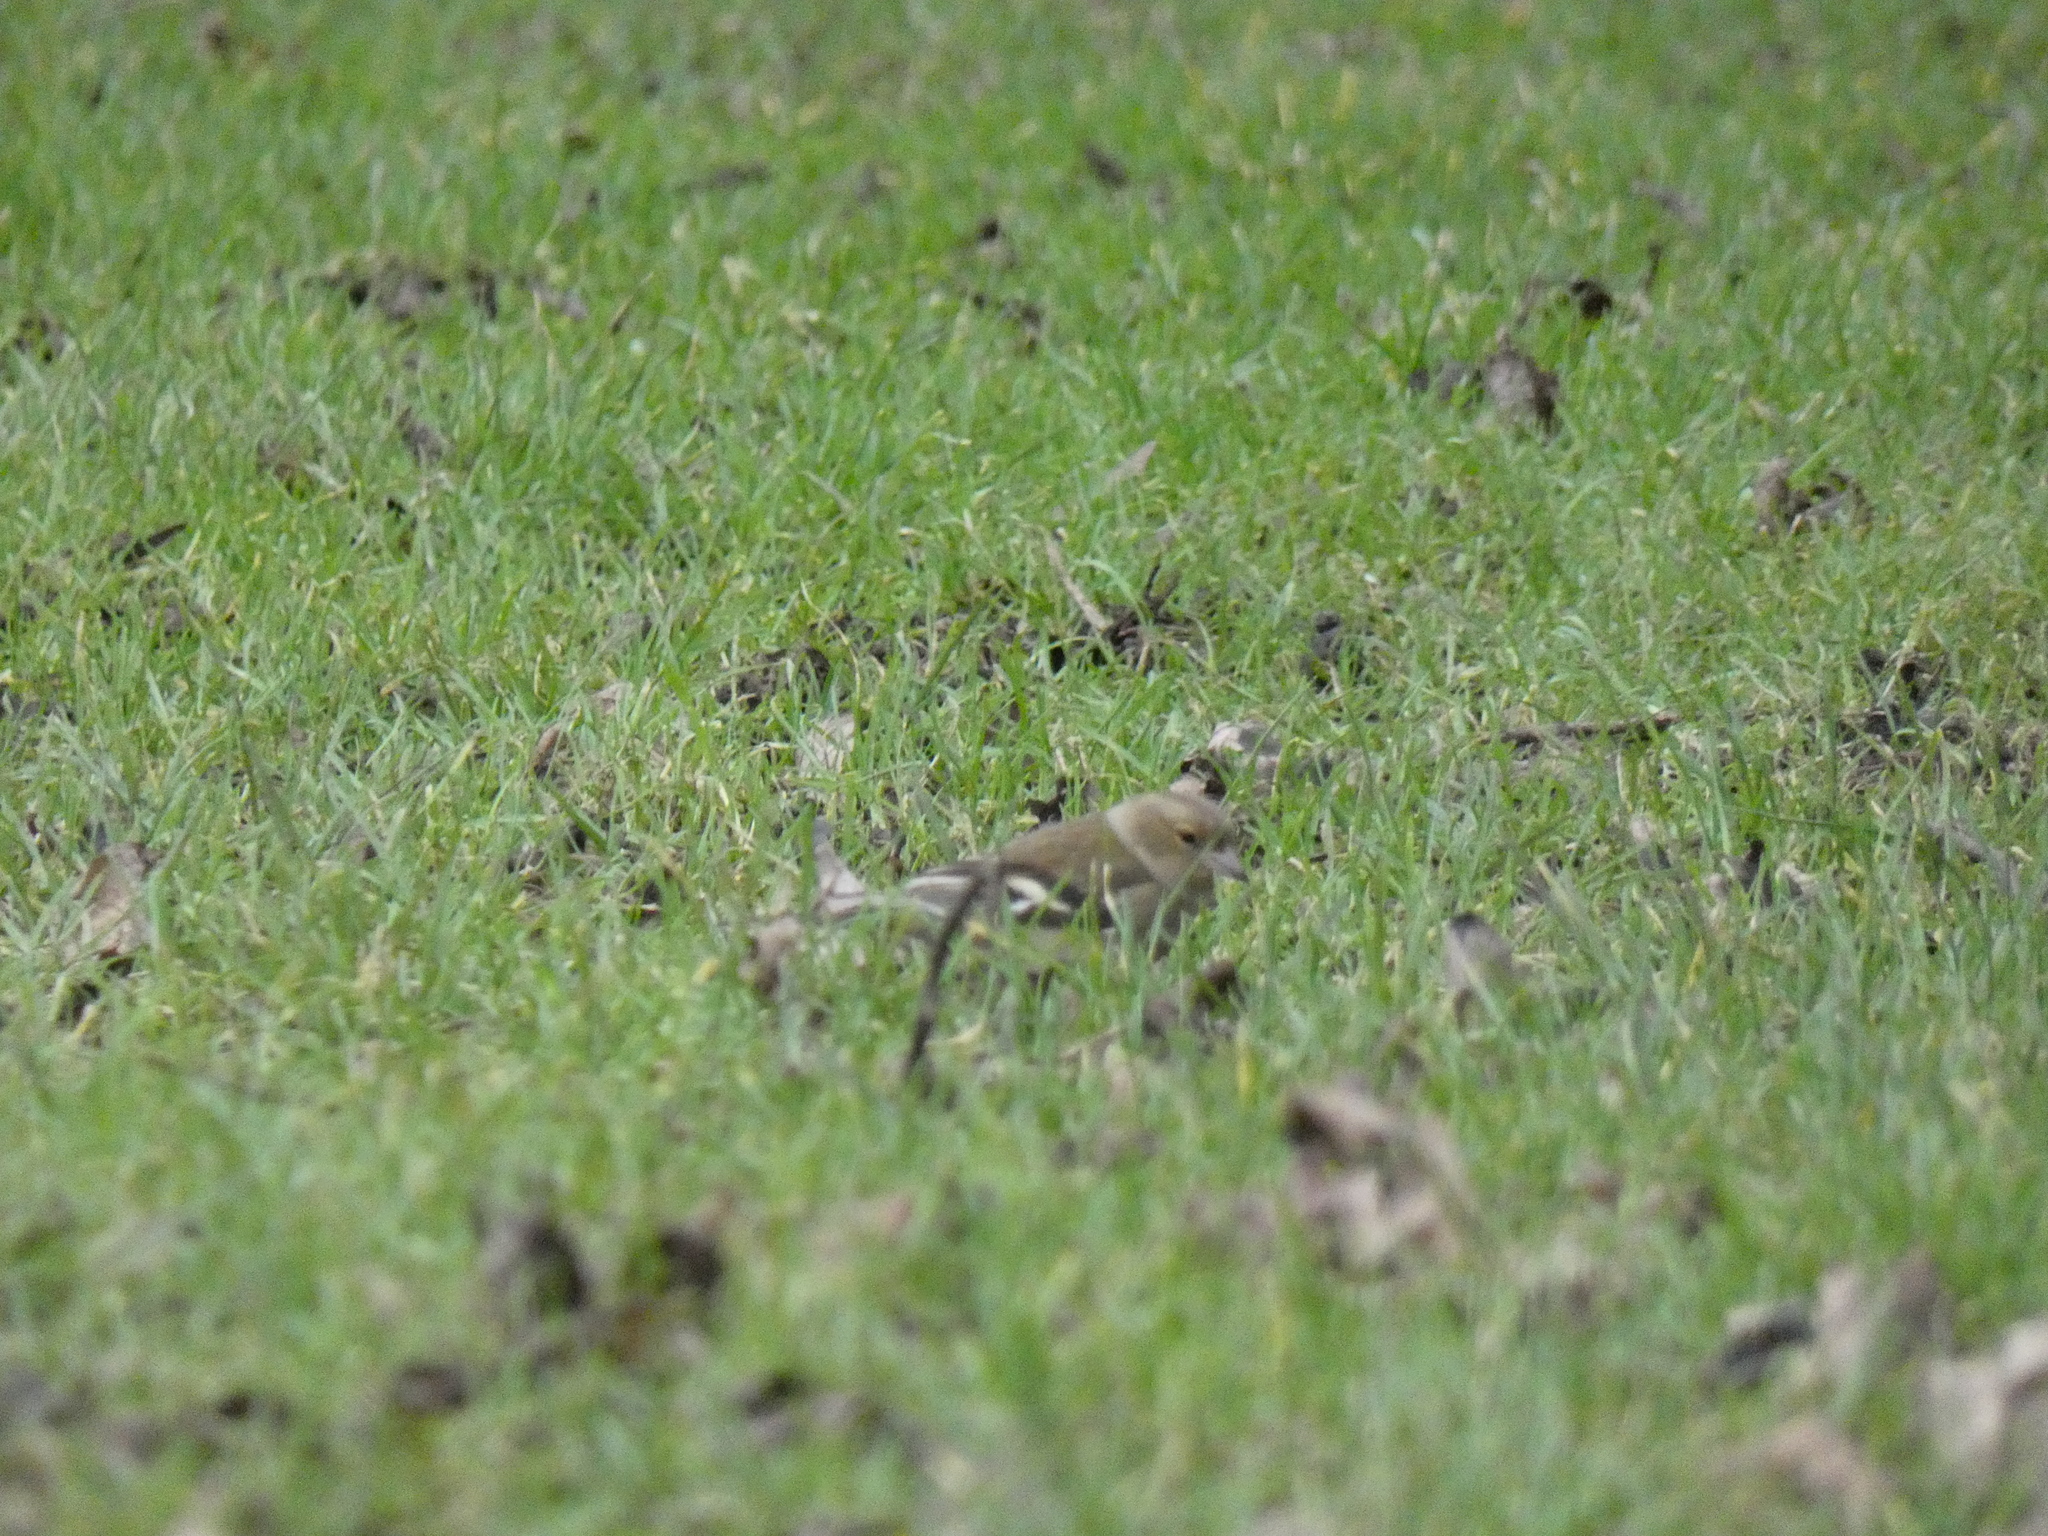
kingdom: Animalia
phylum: Chordata
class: Aves
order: Passeriformes
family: Fringillidae
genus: Fringilla
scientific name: Fringilla coelebs
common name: Common chaffinch
